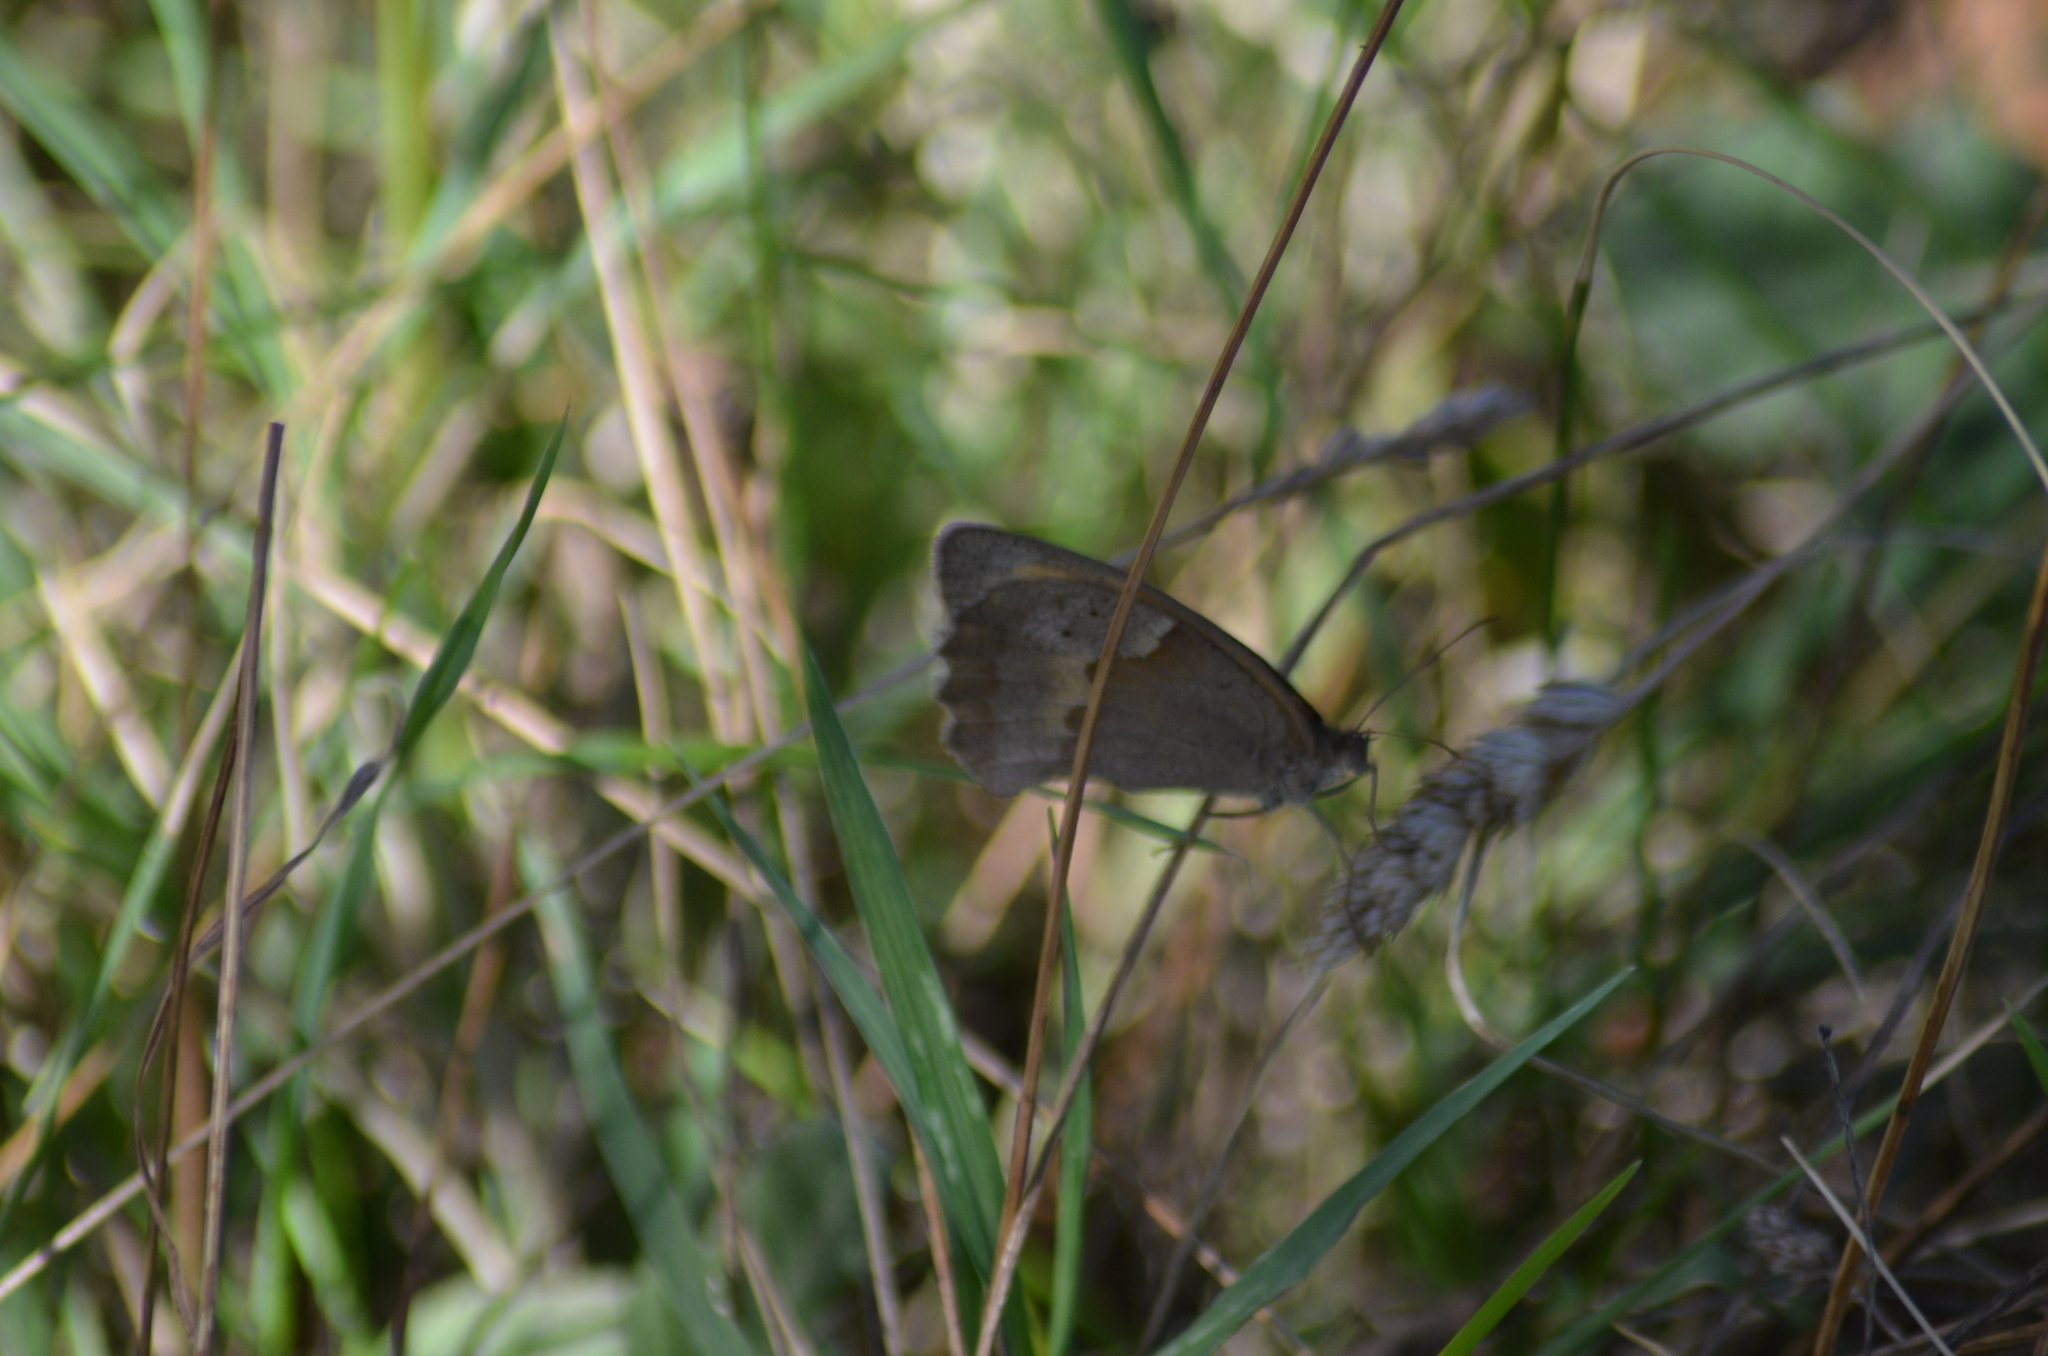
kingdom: Animalia
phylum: Arthropoda
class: Insecta
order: Lepidoptera
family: Nymphalidae
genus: Maniola
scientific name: Maniola jurtina
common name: Meadow brown
